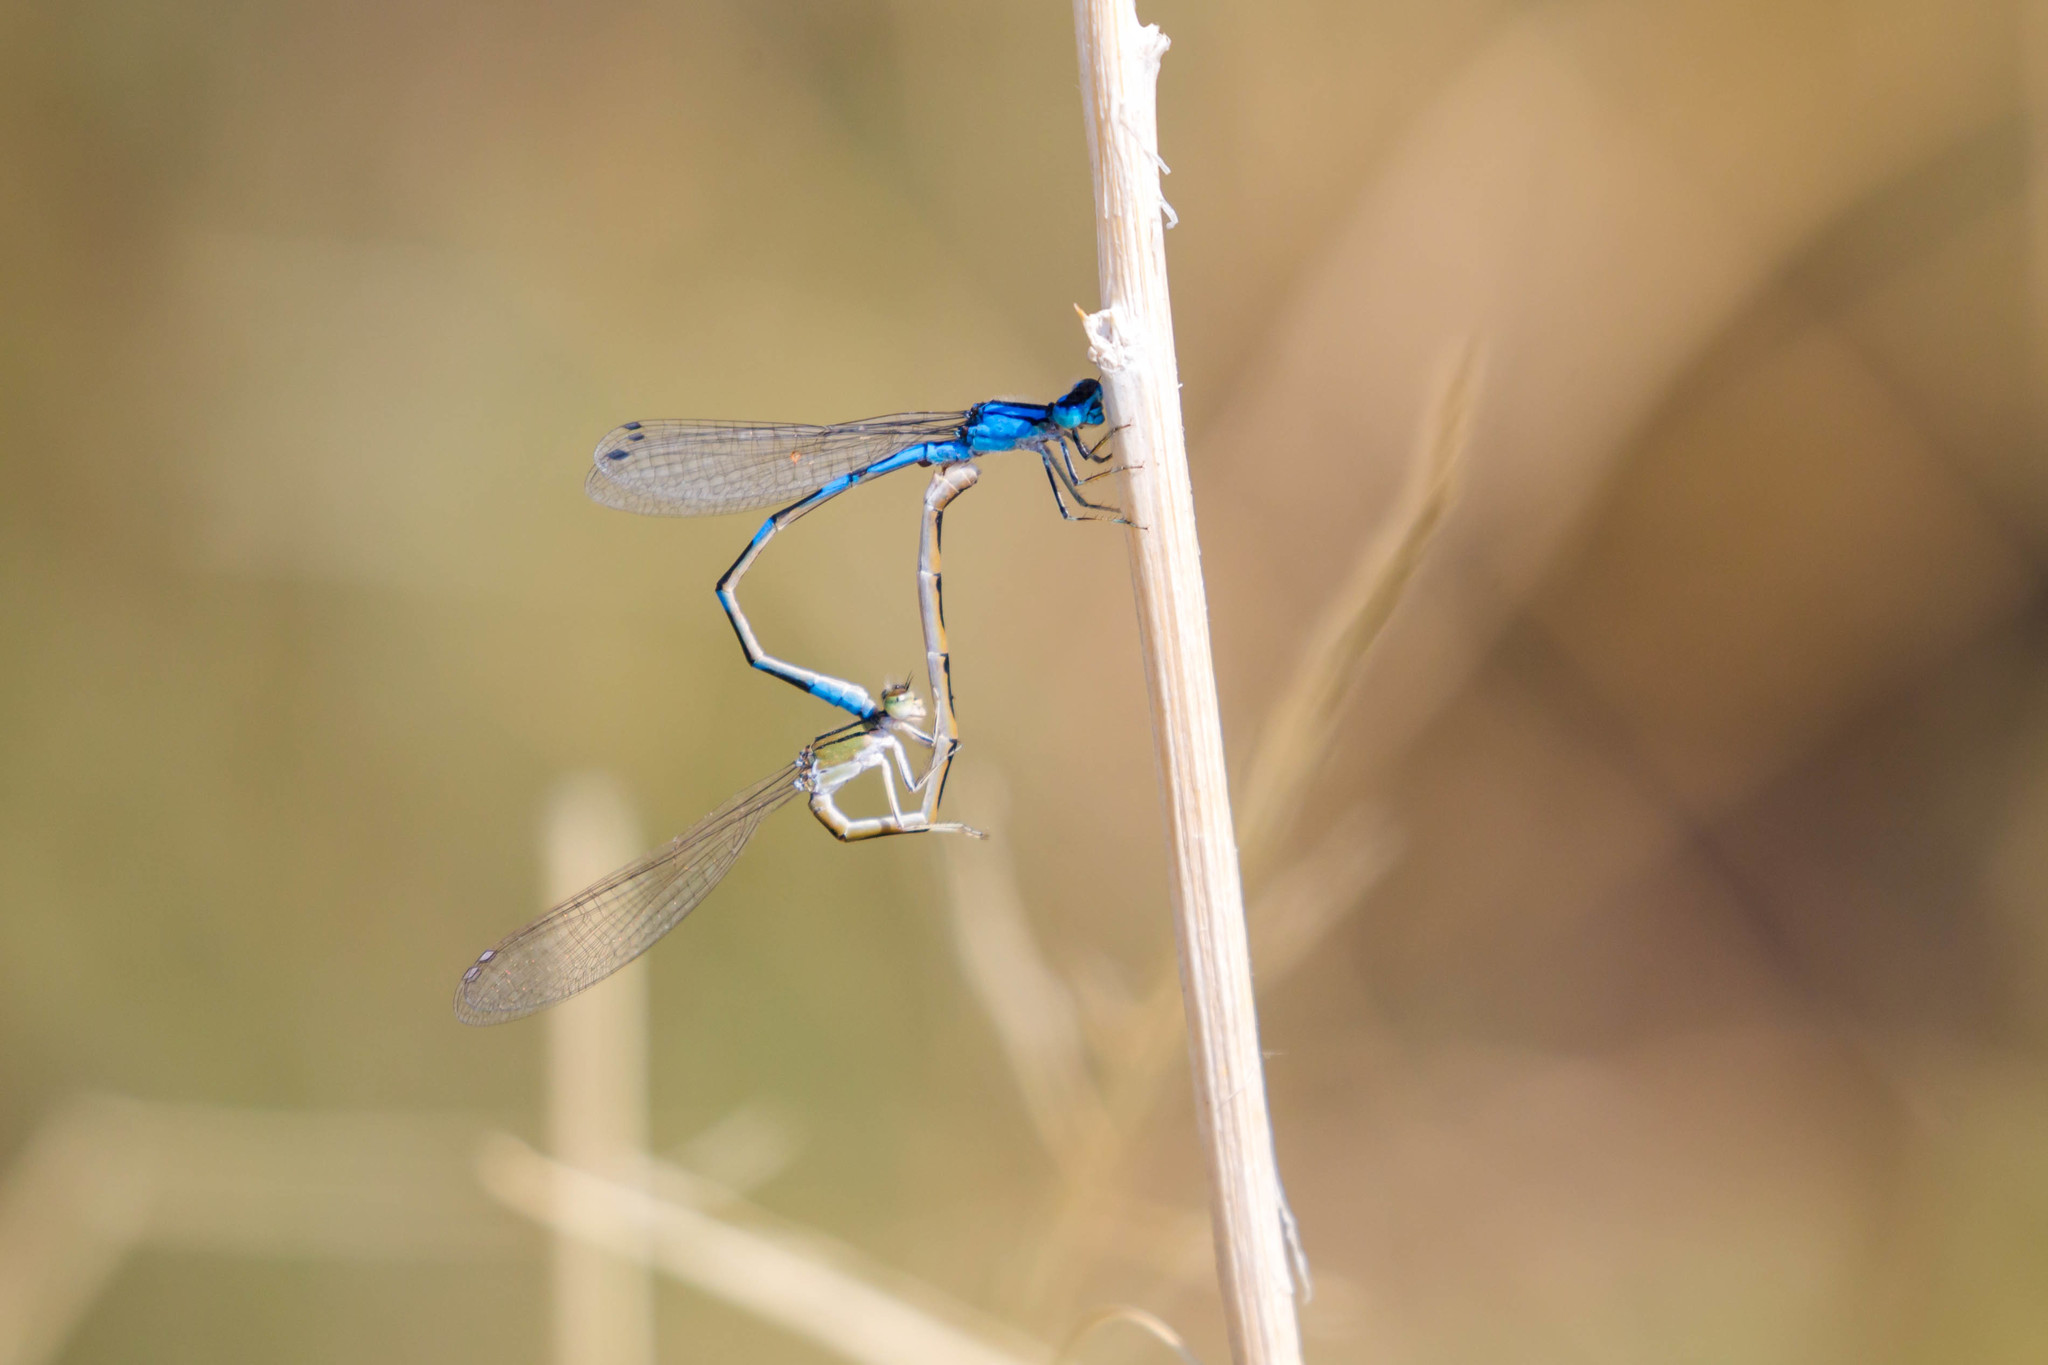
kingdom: Animalia
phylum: Arthropoda
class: Insecta
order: Odonata
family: Coenagrionidae
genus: Enallagma
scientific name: Enallagma praevarum
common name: Arroyo bluet
